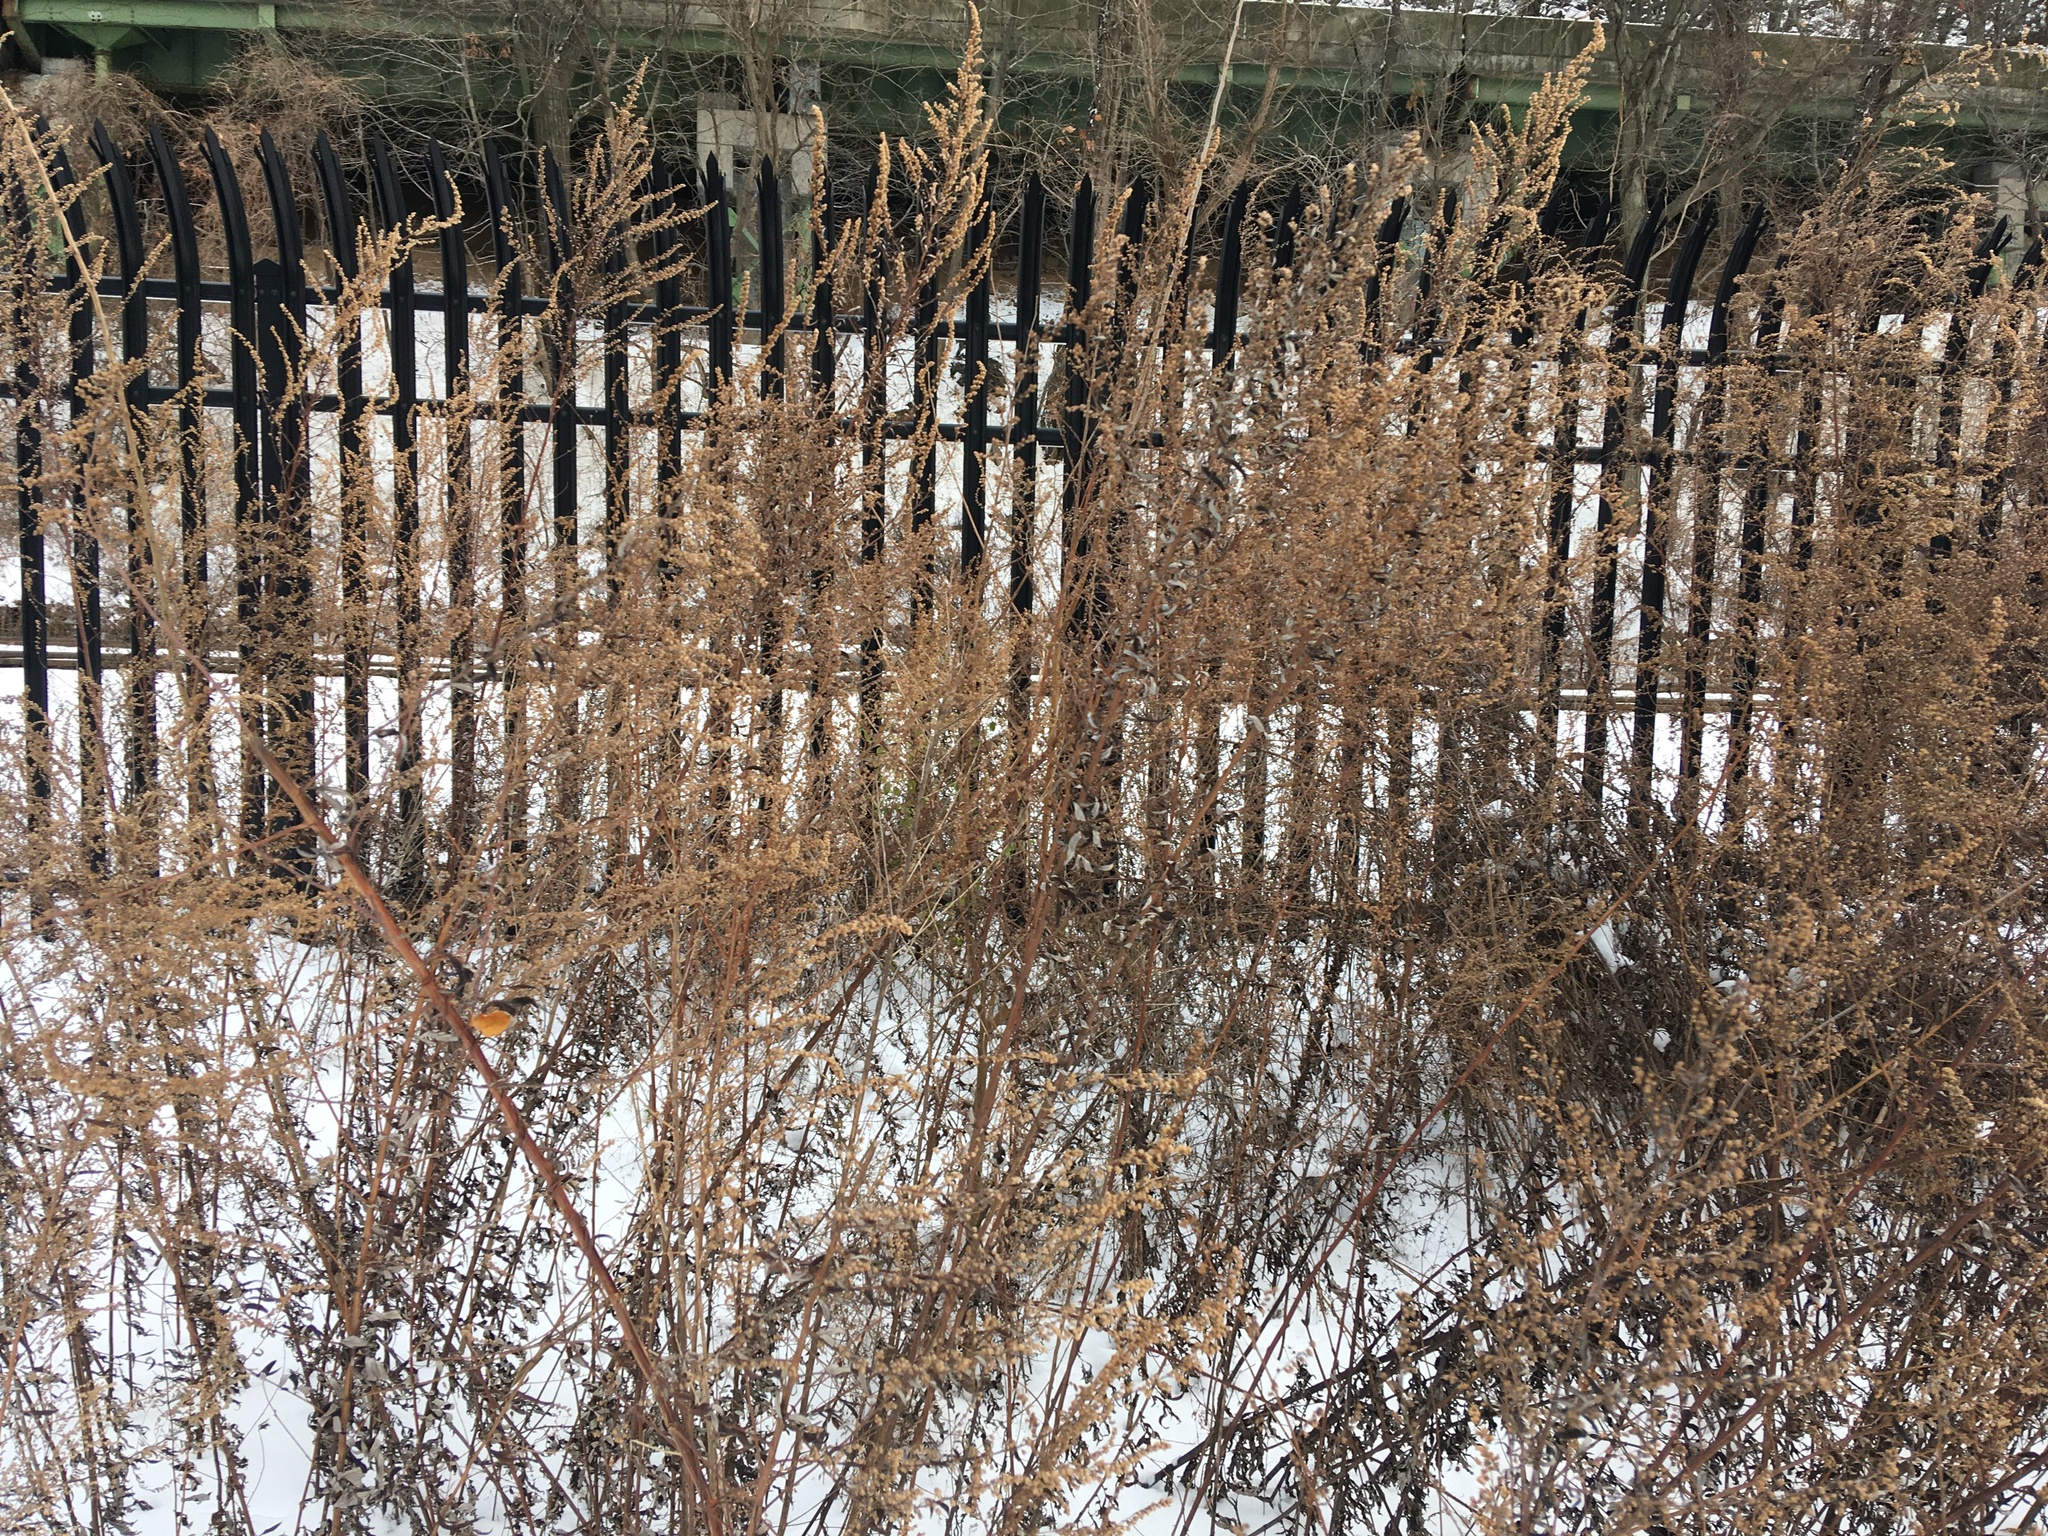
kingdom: Plantae
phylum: Tracheophyta
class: Magnoliopsida
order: Asterales
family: Asteraceae
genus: Artemisia
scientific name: Artemisia vulgaris
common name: Mugwort
